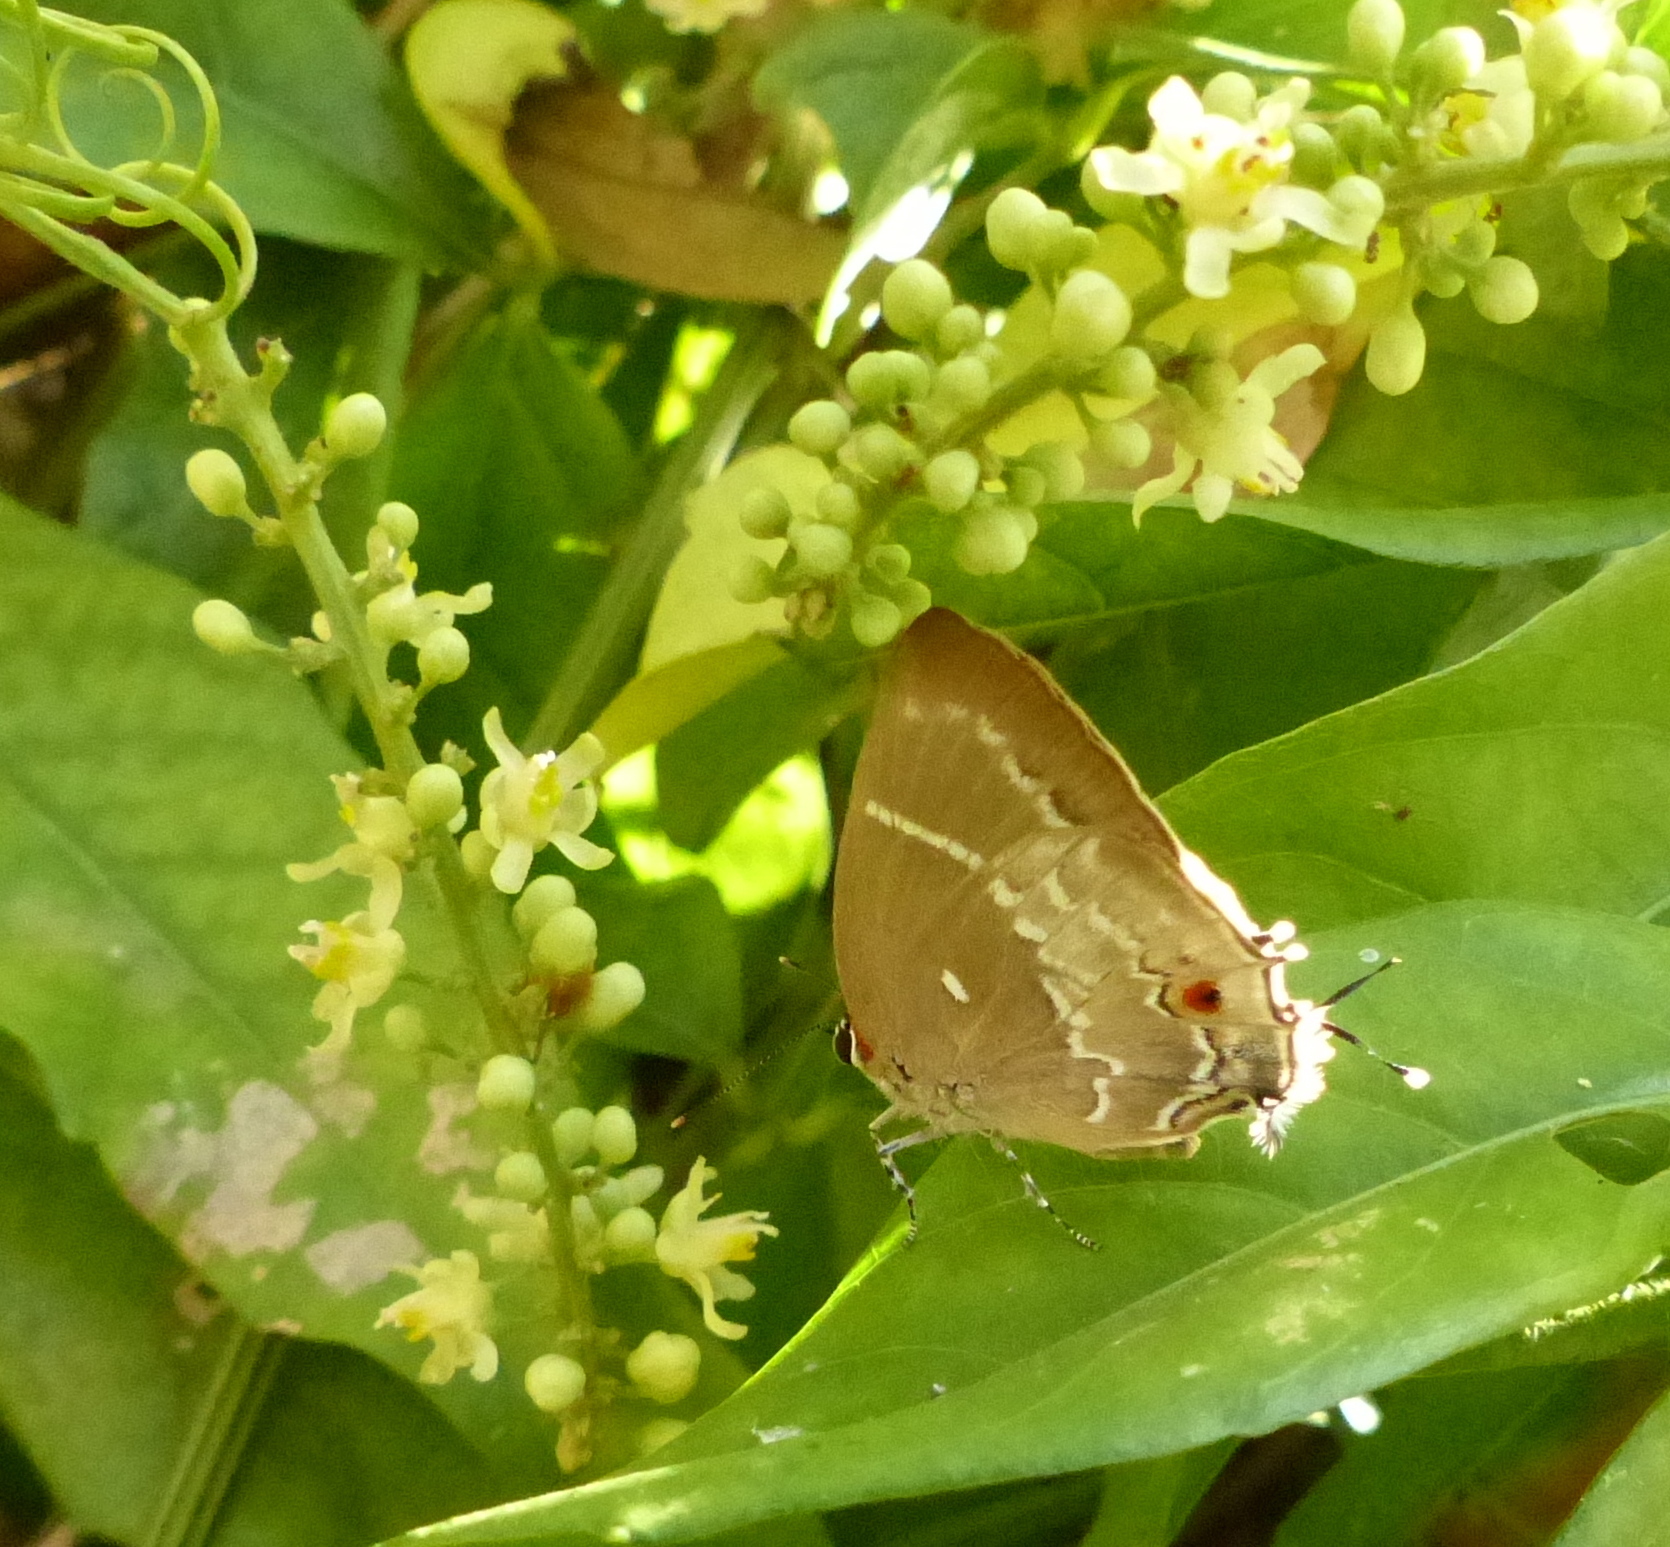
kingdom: Animalia
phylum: Arthropoda
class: Insecta
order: Lepidoptera
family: Lycaenidae
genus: Thecla
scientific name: Thecla phoenissa
